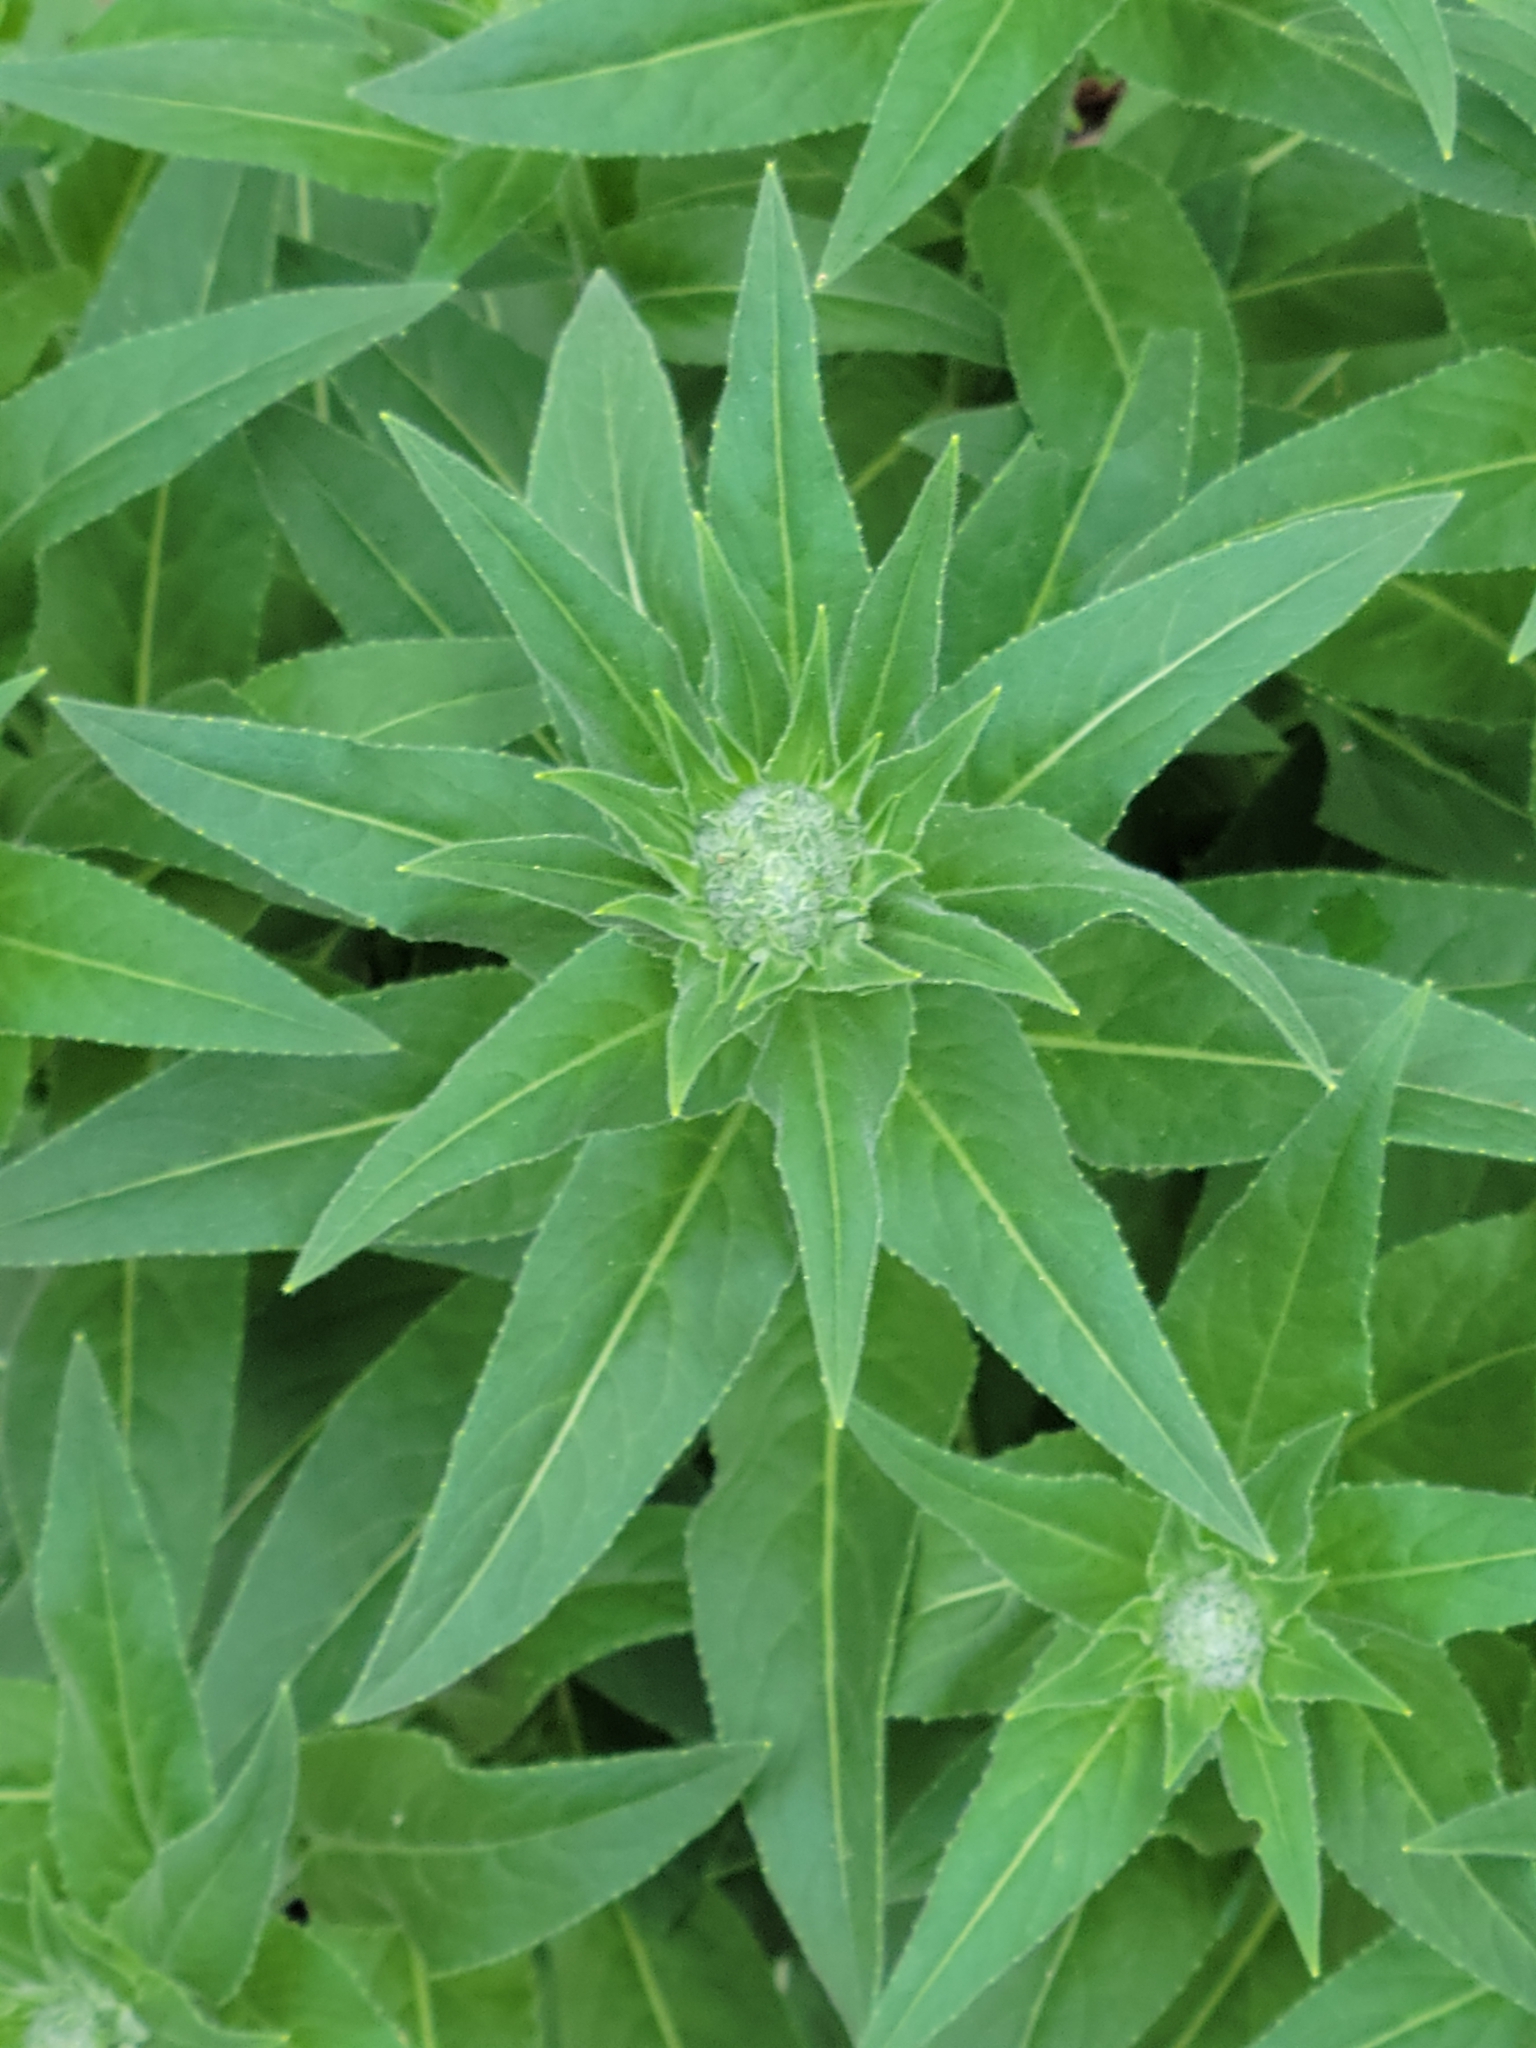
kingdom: Plantae
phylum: Tracheophyta
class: Magnoliopsida
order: Brassicales
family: Brassicaceae
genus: Hesperis
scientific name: Hesperis matronalis
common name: Dame's-violet
